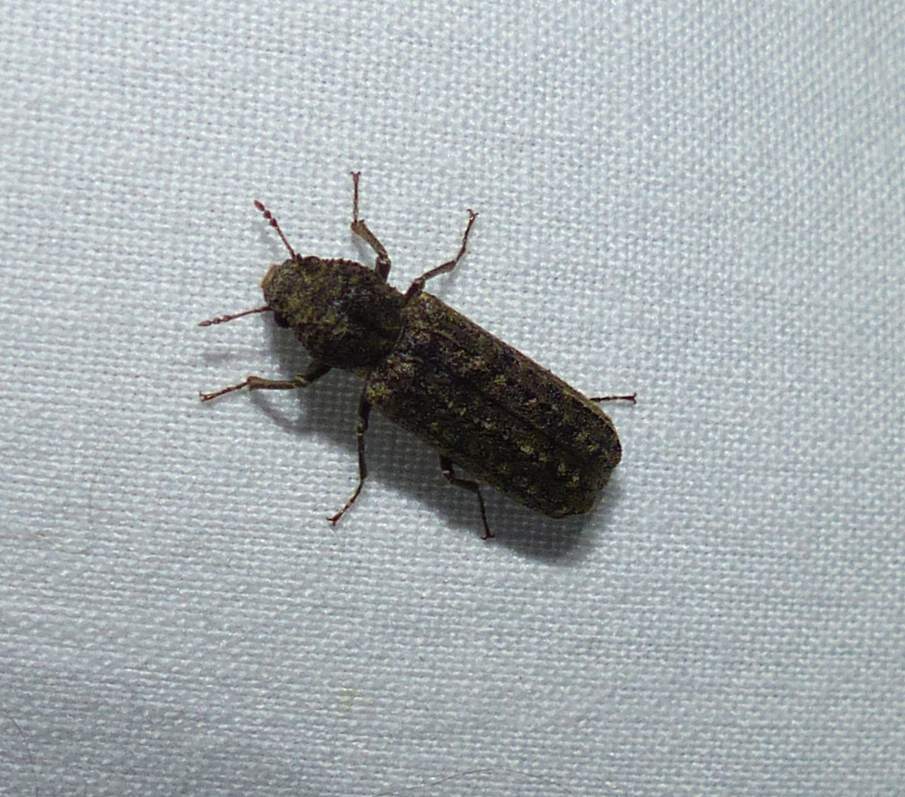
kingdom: Animalia
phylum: Arthropoda
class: Insecta
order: Coleoptera
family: Bostrichidae
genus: Lichenophanes
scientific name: Lichenophanes bicornis
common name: Two-horned powder-post beetle
